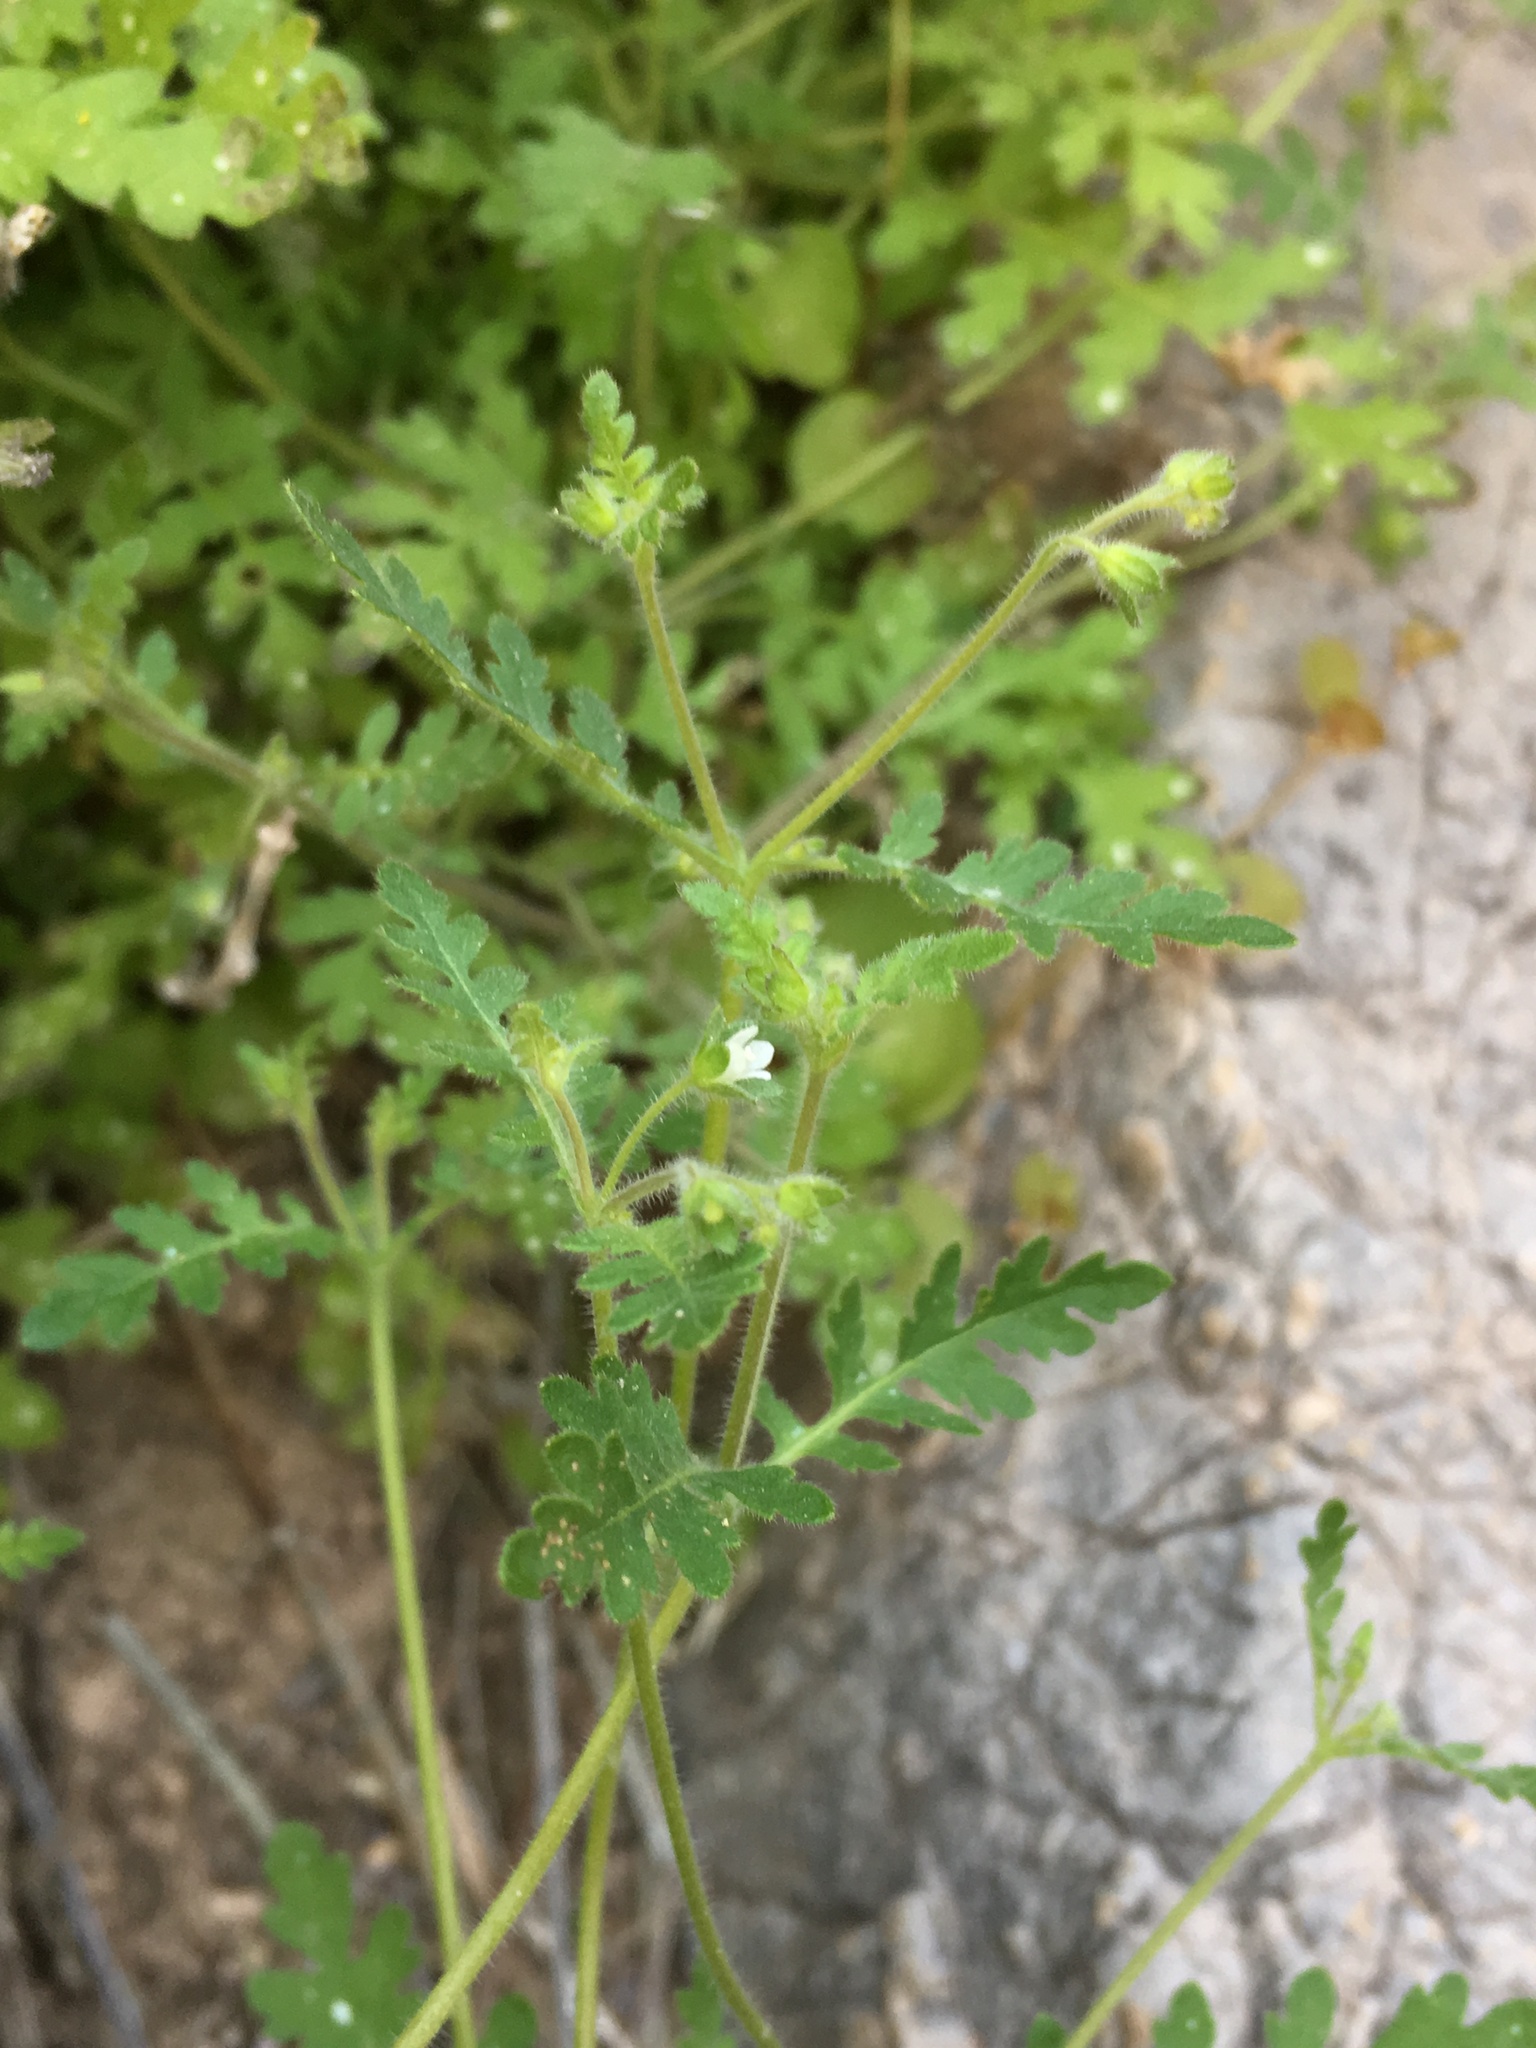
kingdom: Plantae
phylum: Tracheophyta
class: Magnoliopsida
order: Boraginales
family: Hydrophyllaceae
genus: Eucrypta
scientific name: Eucrypta chrysanthemifolia
